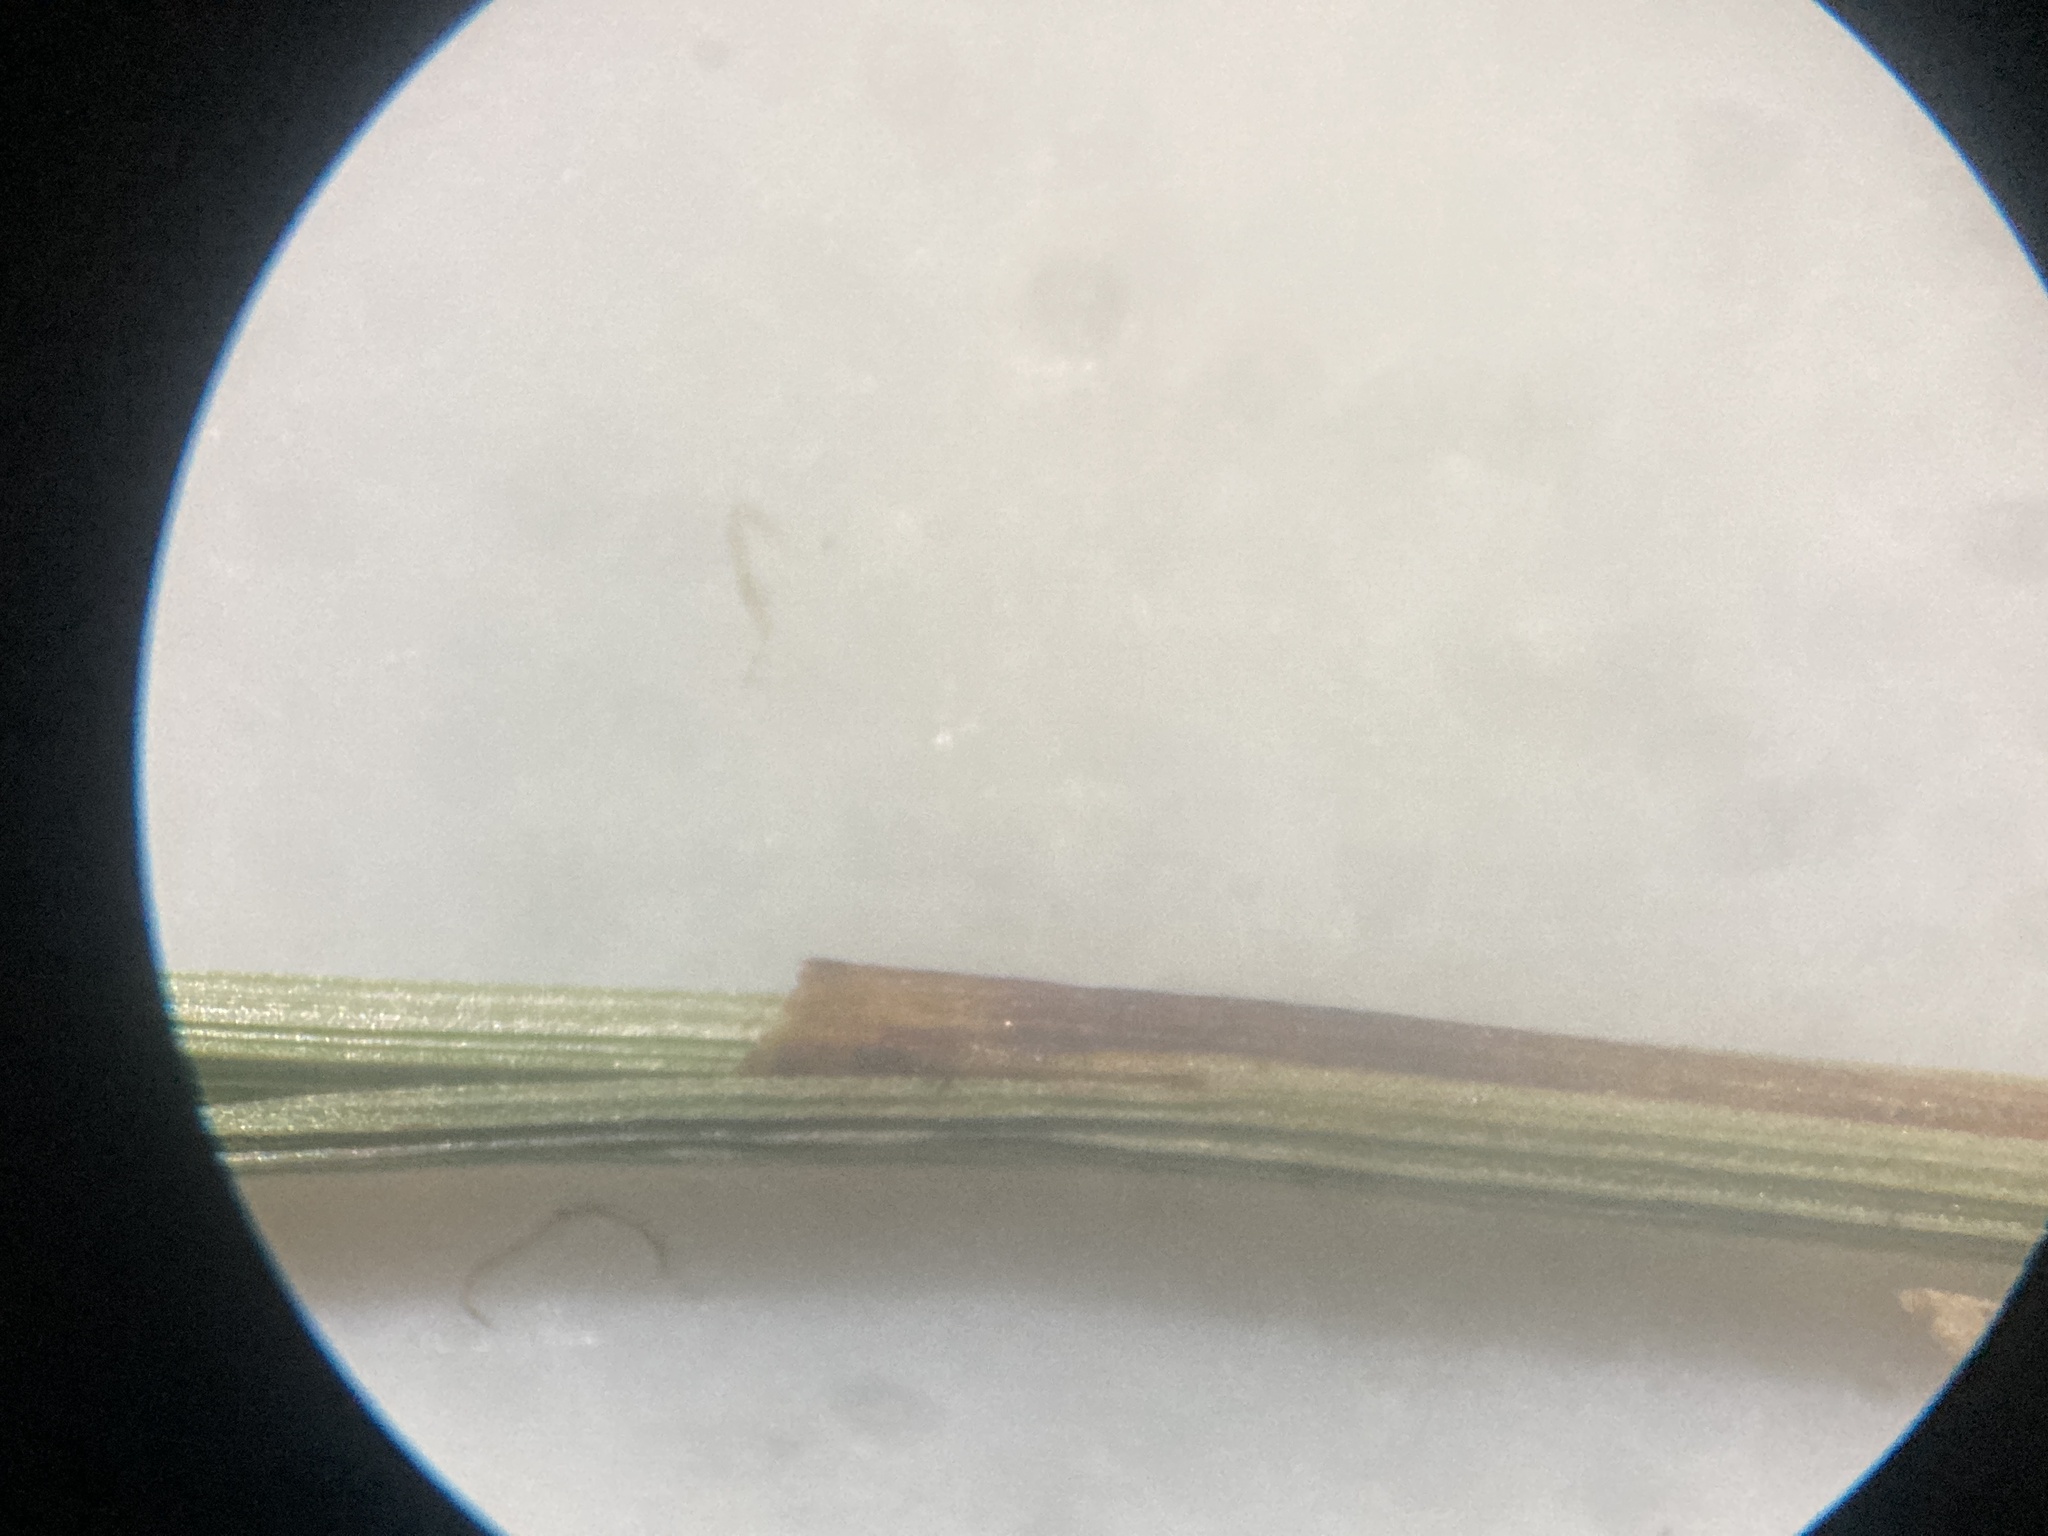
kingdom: Plantae
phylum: Tracheophyta
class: Liliopsida
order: Poales
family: Cyperaceae
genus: Carex
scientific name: Carex prairea
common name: Prairie sedge
